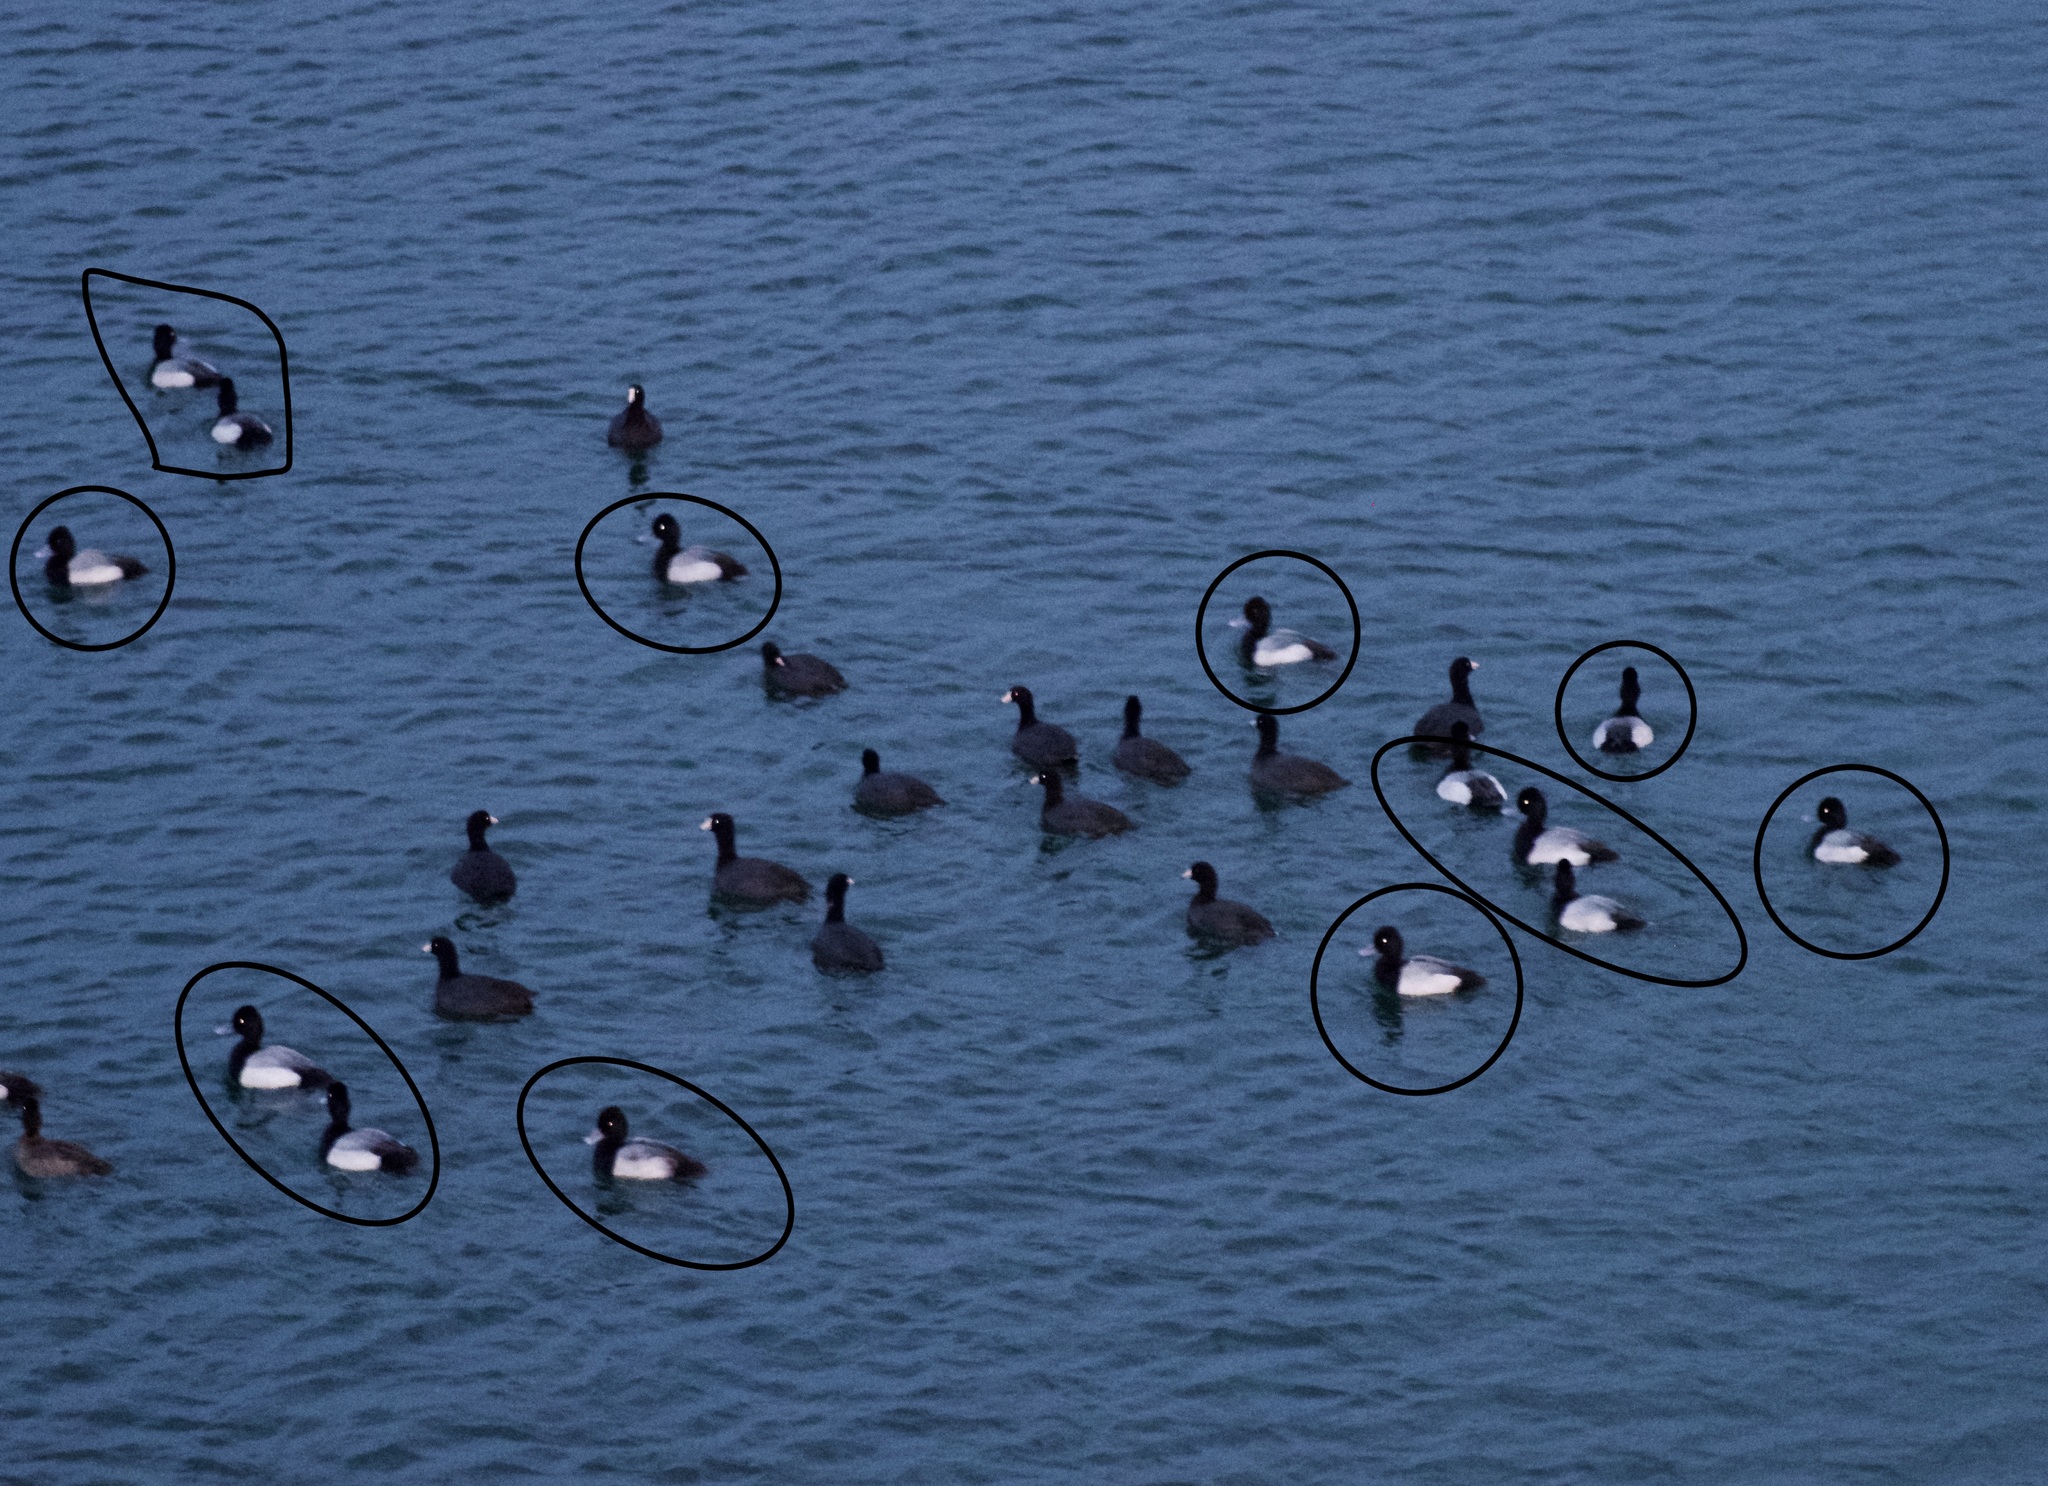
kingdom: Animalia
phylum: Chordata
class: Aves
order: Anseriformes
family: Anatidae
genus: Aythya
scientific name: Aythya affinis
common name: Lesser scaup
